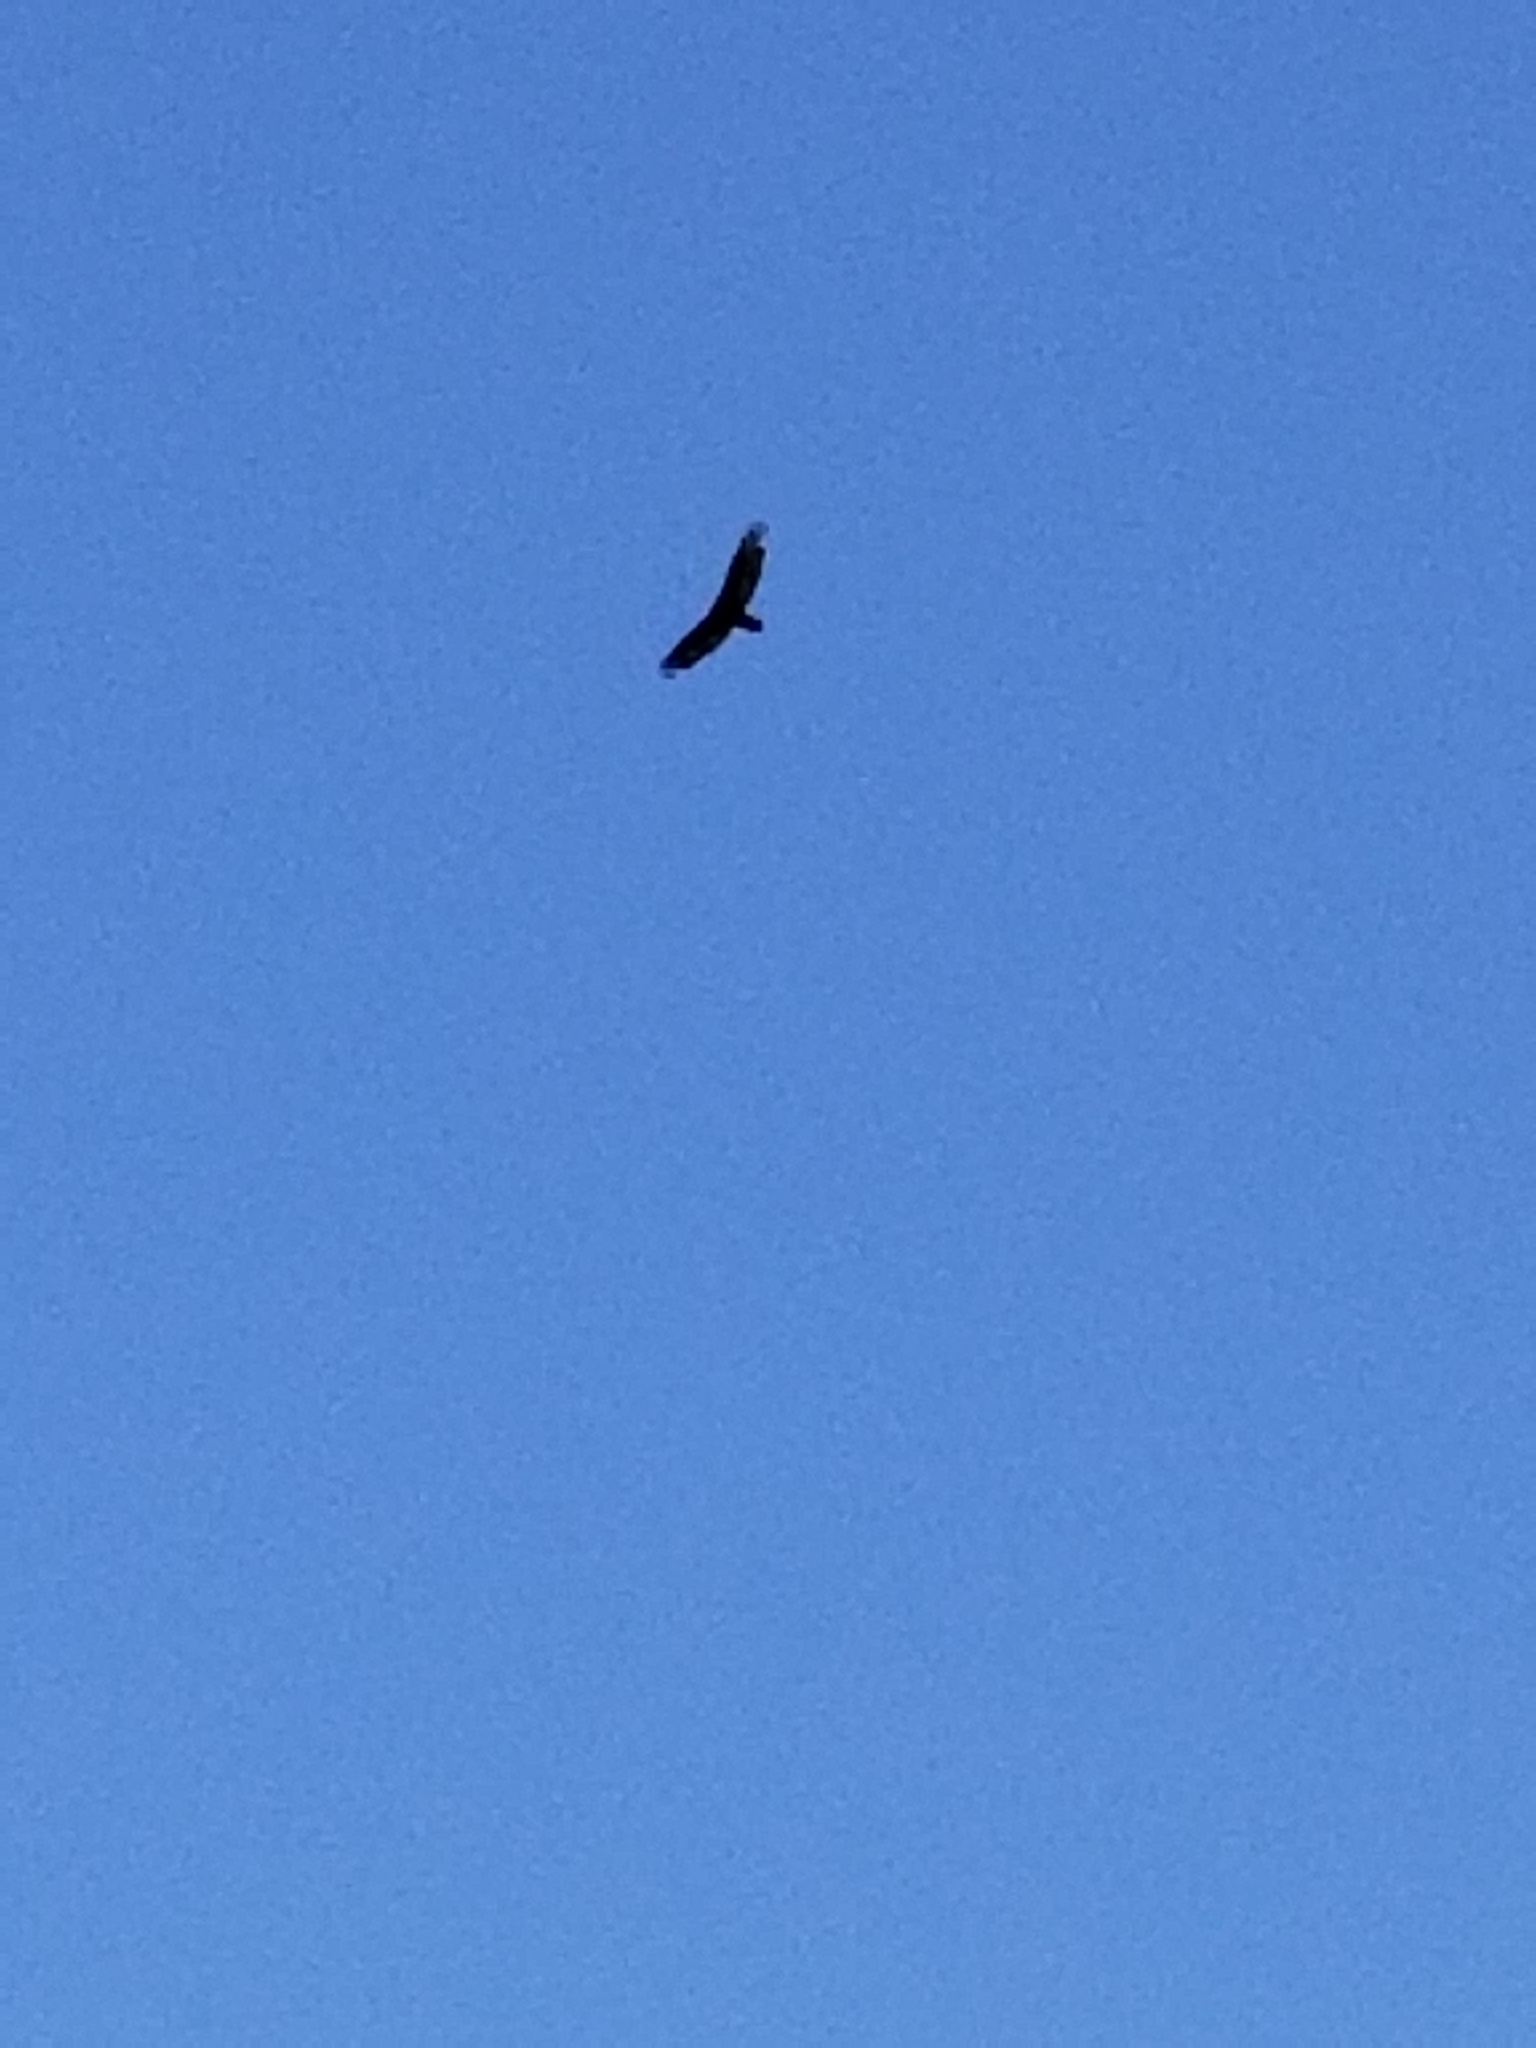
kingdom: Animalia
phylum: Chordata
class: Aves
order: Accipitriformes
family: Cathartidae
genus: Cathartes
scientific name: Cathartes aura
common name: Turkey vulture
